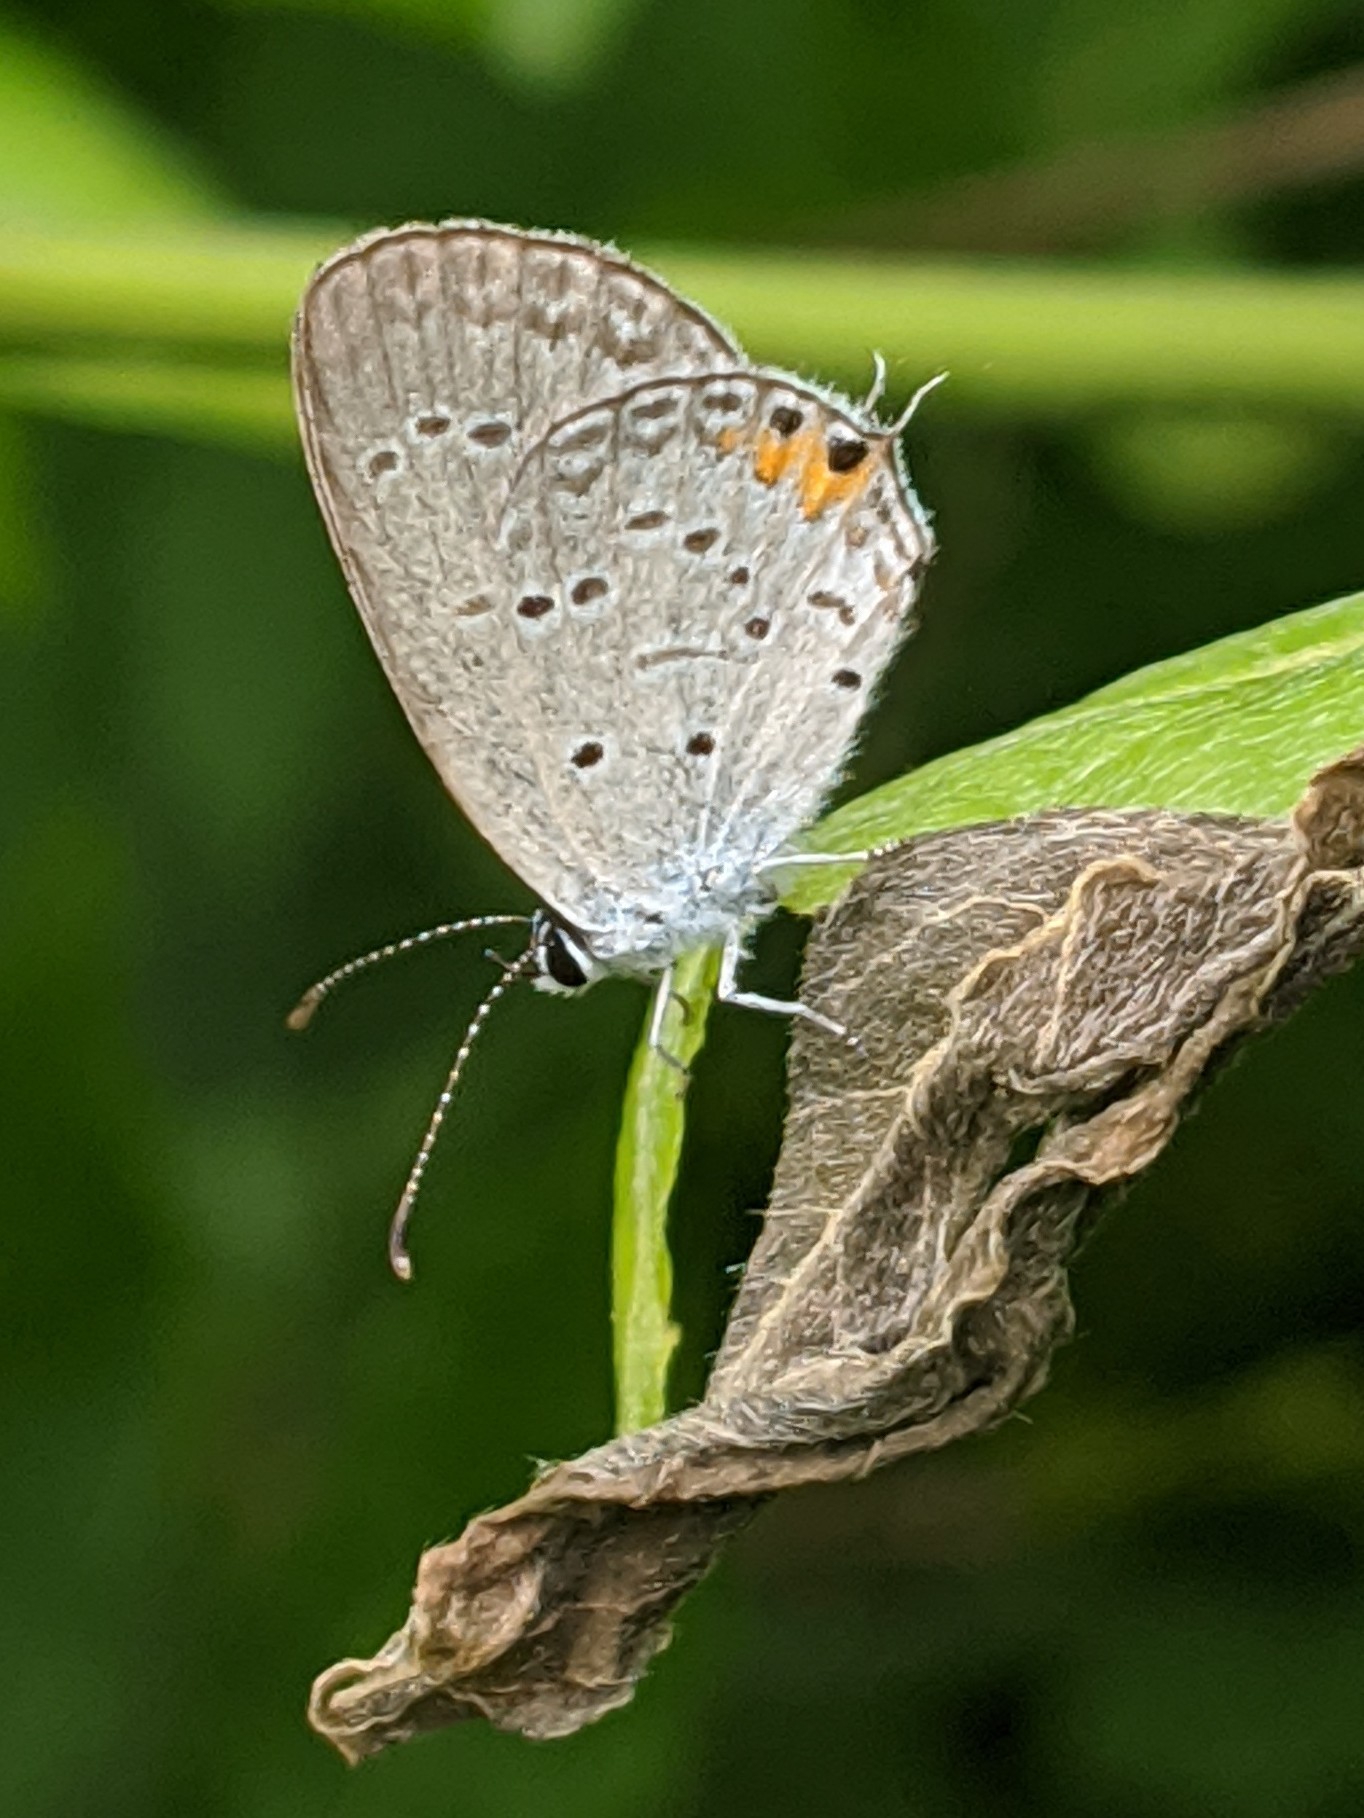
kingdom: Animalia
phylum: Arthropoda
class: Insecta
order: Lepidoptera
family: Lycaenidae
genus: Elkalyce
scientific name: Elkalyce comyntas
